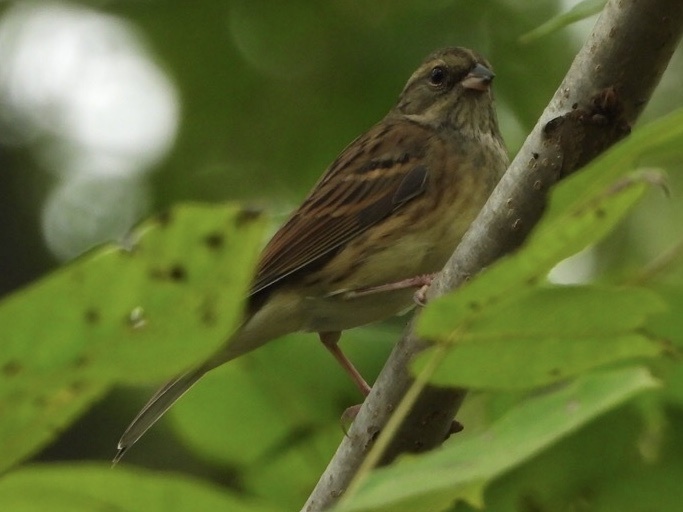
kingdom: Animalia
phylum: Chordata
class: Aves
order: Passeriformes
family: Emberizidae
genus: Emberiza
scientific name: Emberiza spodocephala
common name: Black-faced bunting
